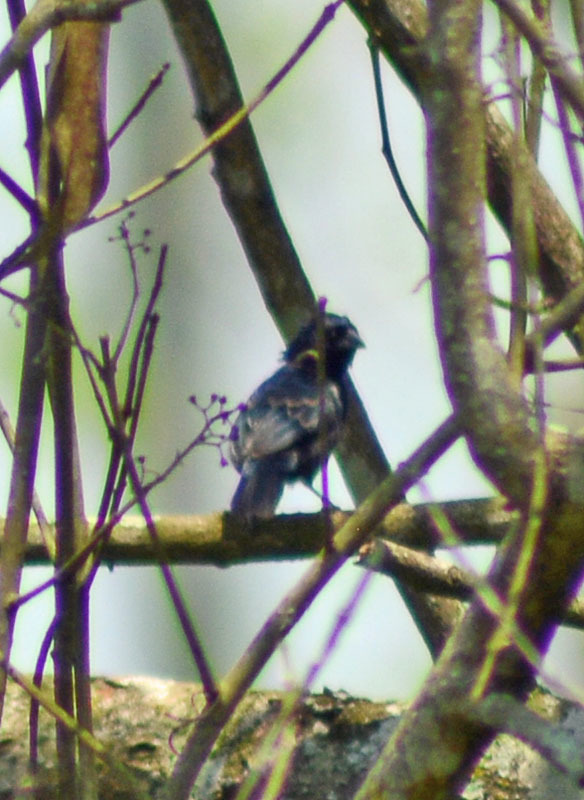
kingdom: Animalia
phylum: Chordata
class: Aves
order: Passeriformes
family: Thraupidae
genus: Volatinia
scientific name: Volatinia jacarina
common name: Blue-black grassquit
